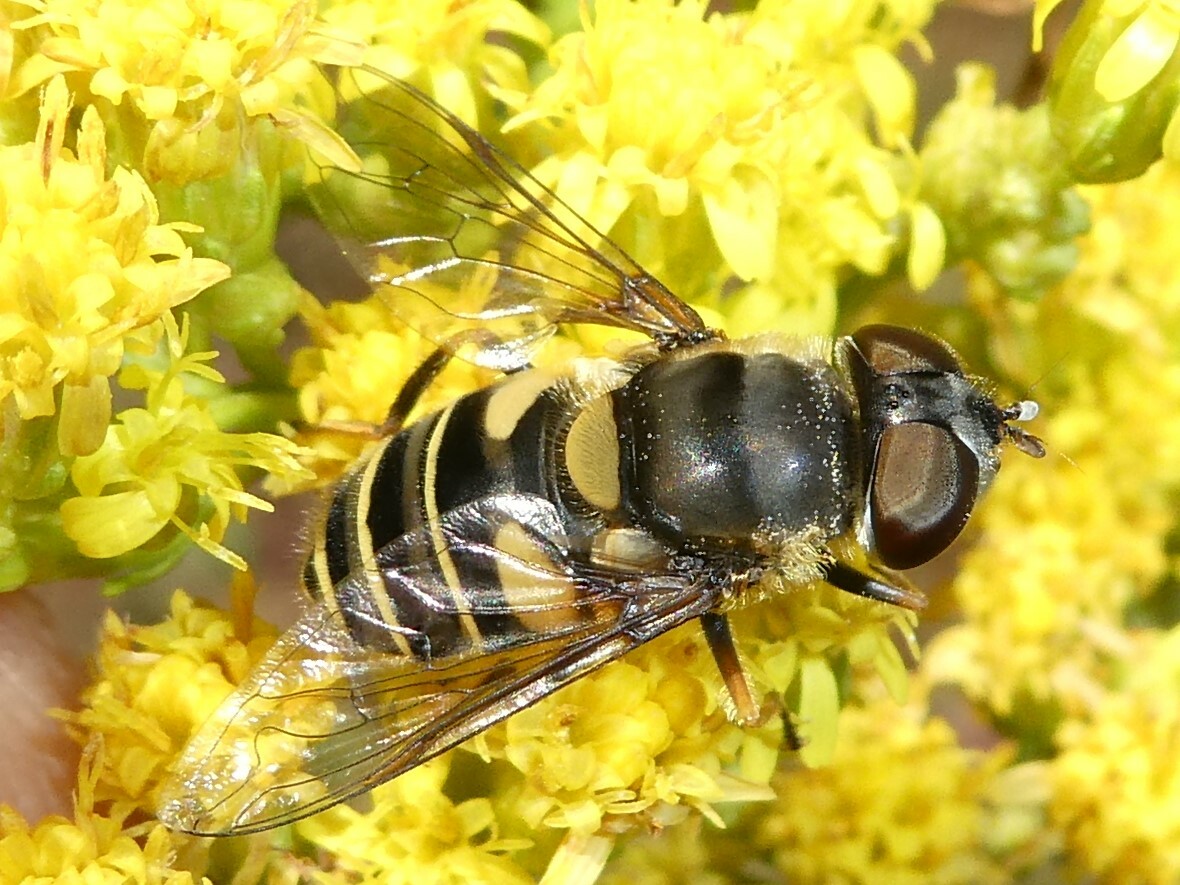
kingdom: Animalia
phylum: Arthropoda
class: Insecta
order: Diptera
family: Syrphidae
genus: Eristalis
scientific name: Eristalis transversa
